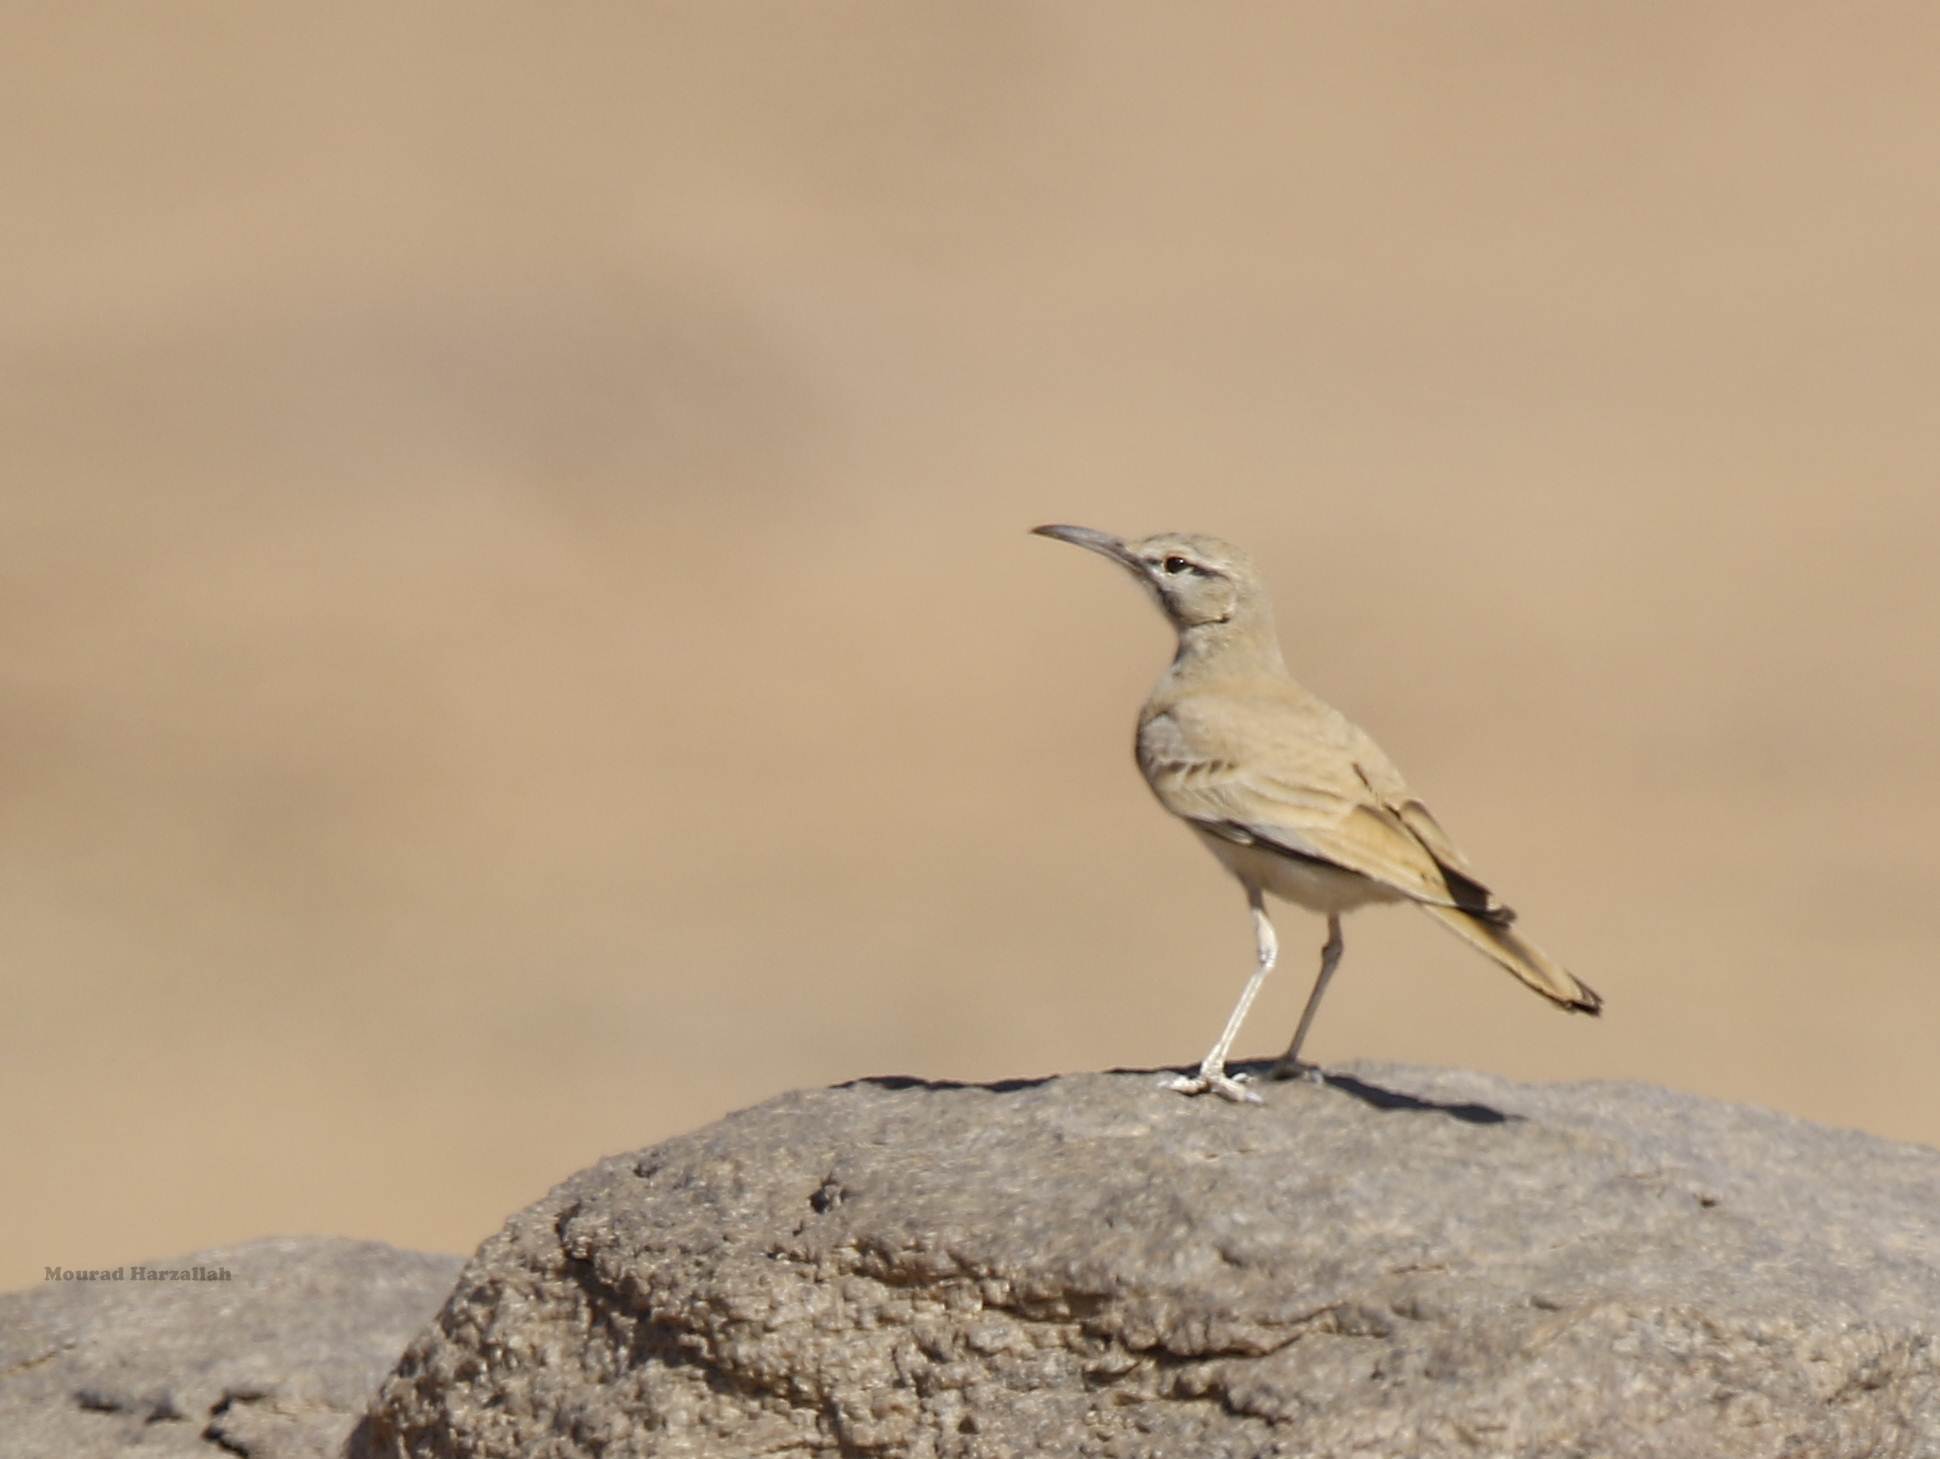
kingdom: Animalia
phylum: Chordata
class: Aves
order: Passeriformes
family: Alaudidae
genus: Alaemon
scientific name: Alaemon alaudipes
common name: Greater hoopoe-lark
